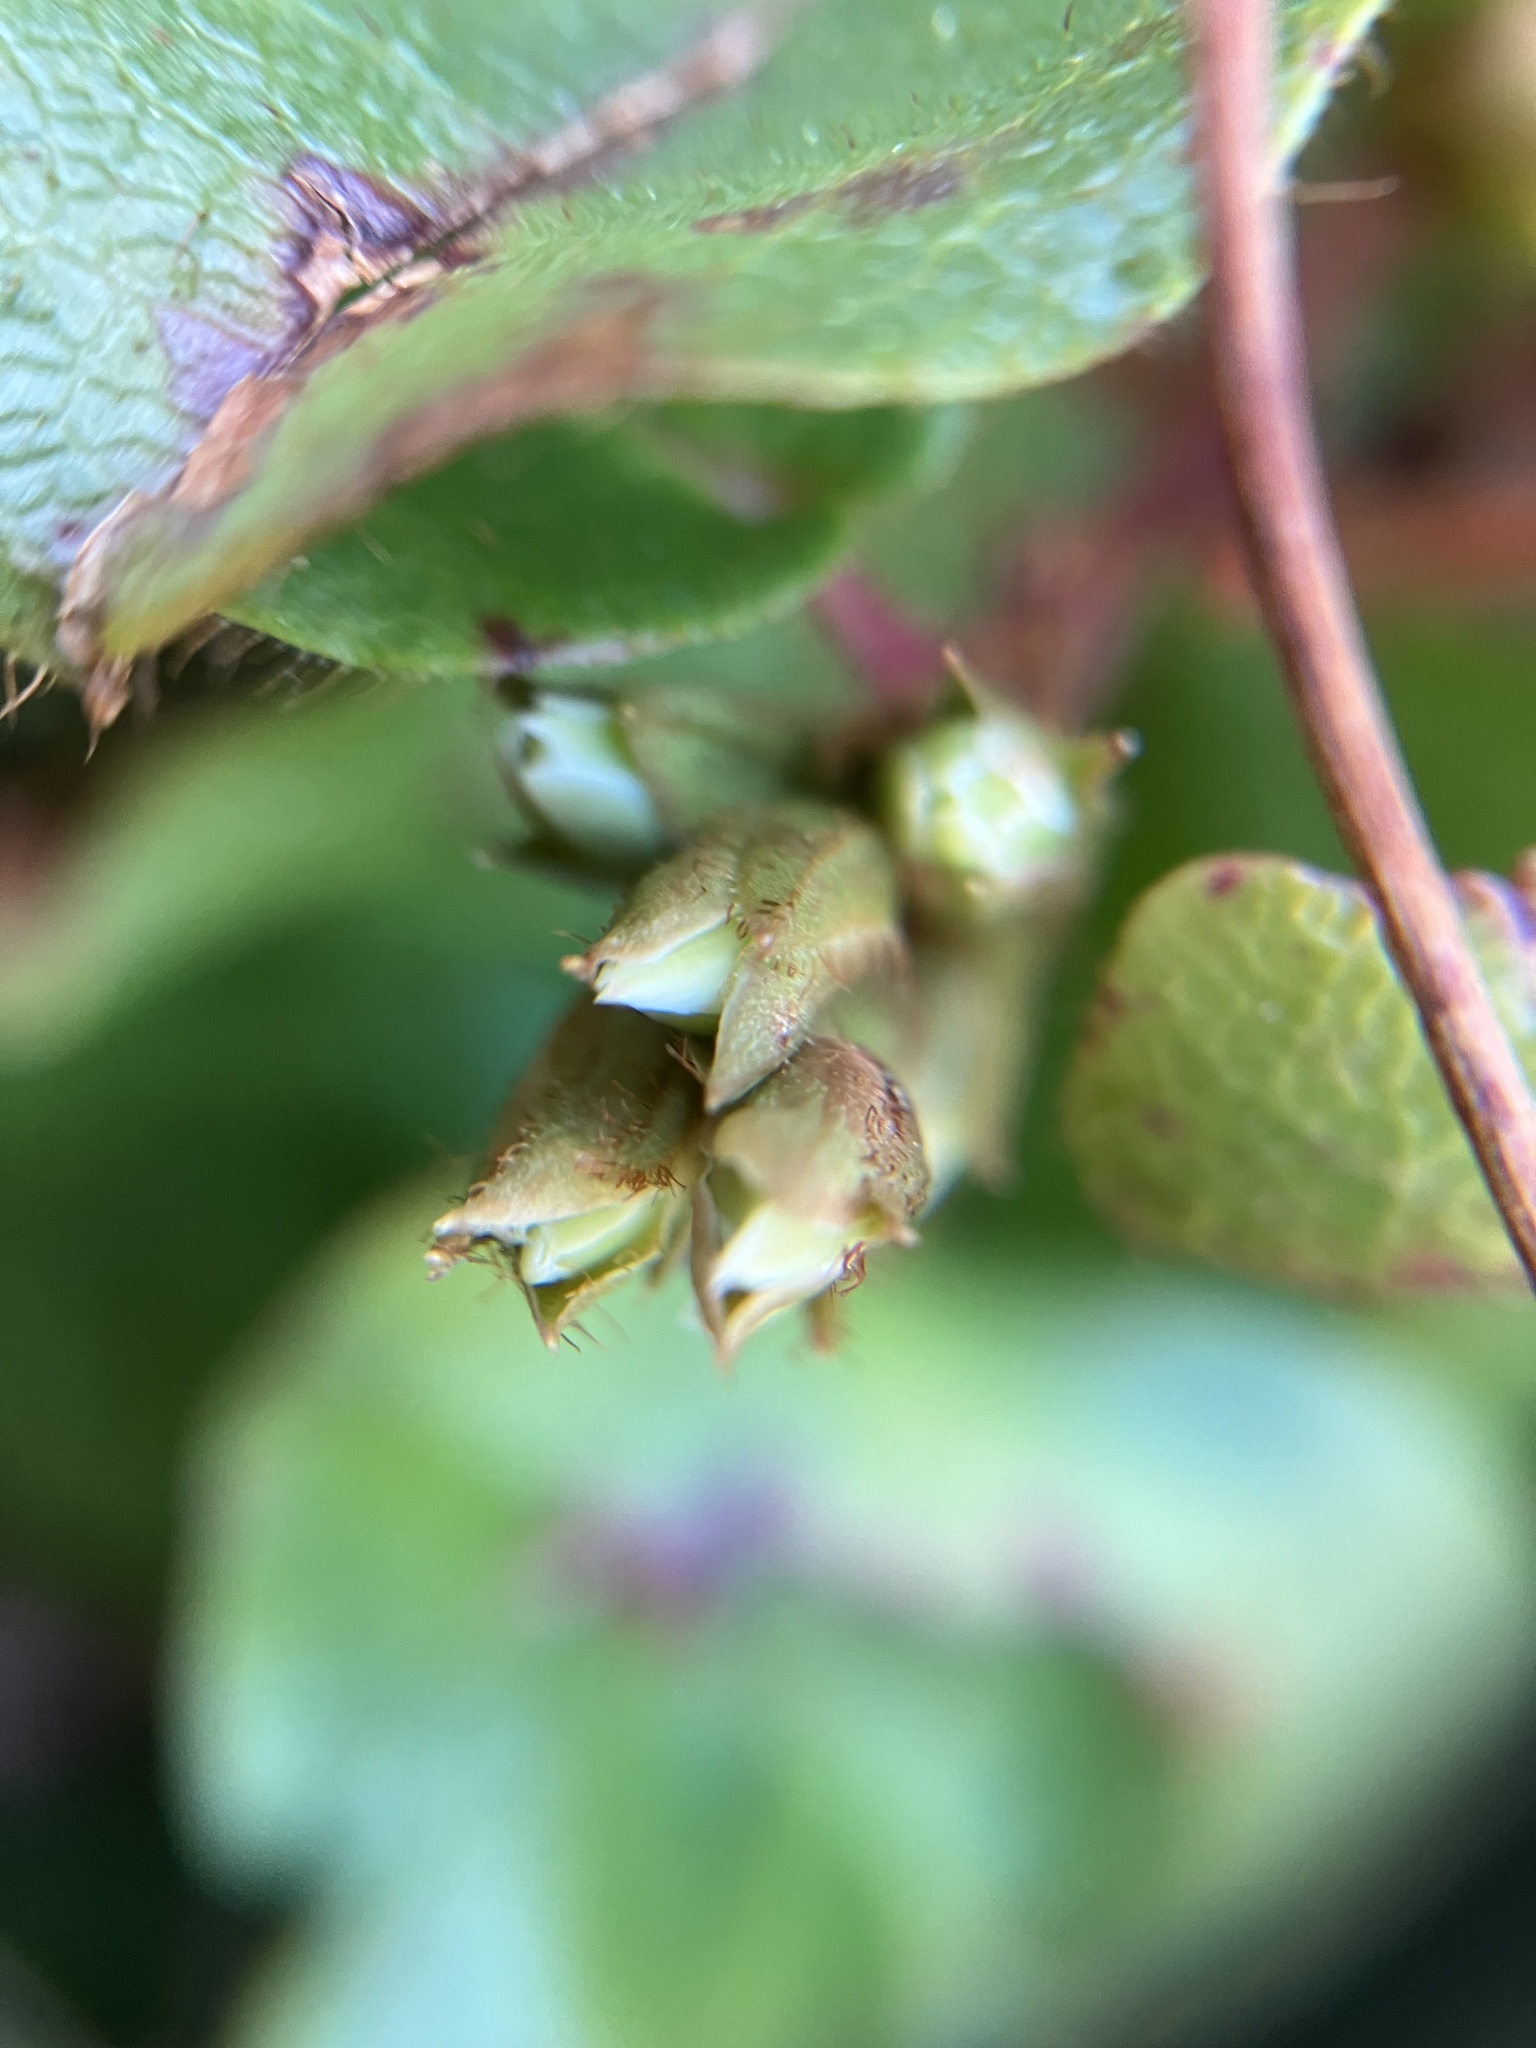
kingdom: Plantae
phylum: Tracheophyta
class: Magnoliopsida
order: Ericales
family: Ericaceae
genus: Epigaea
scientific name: Epigaea repens
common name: Gravelroot
